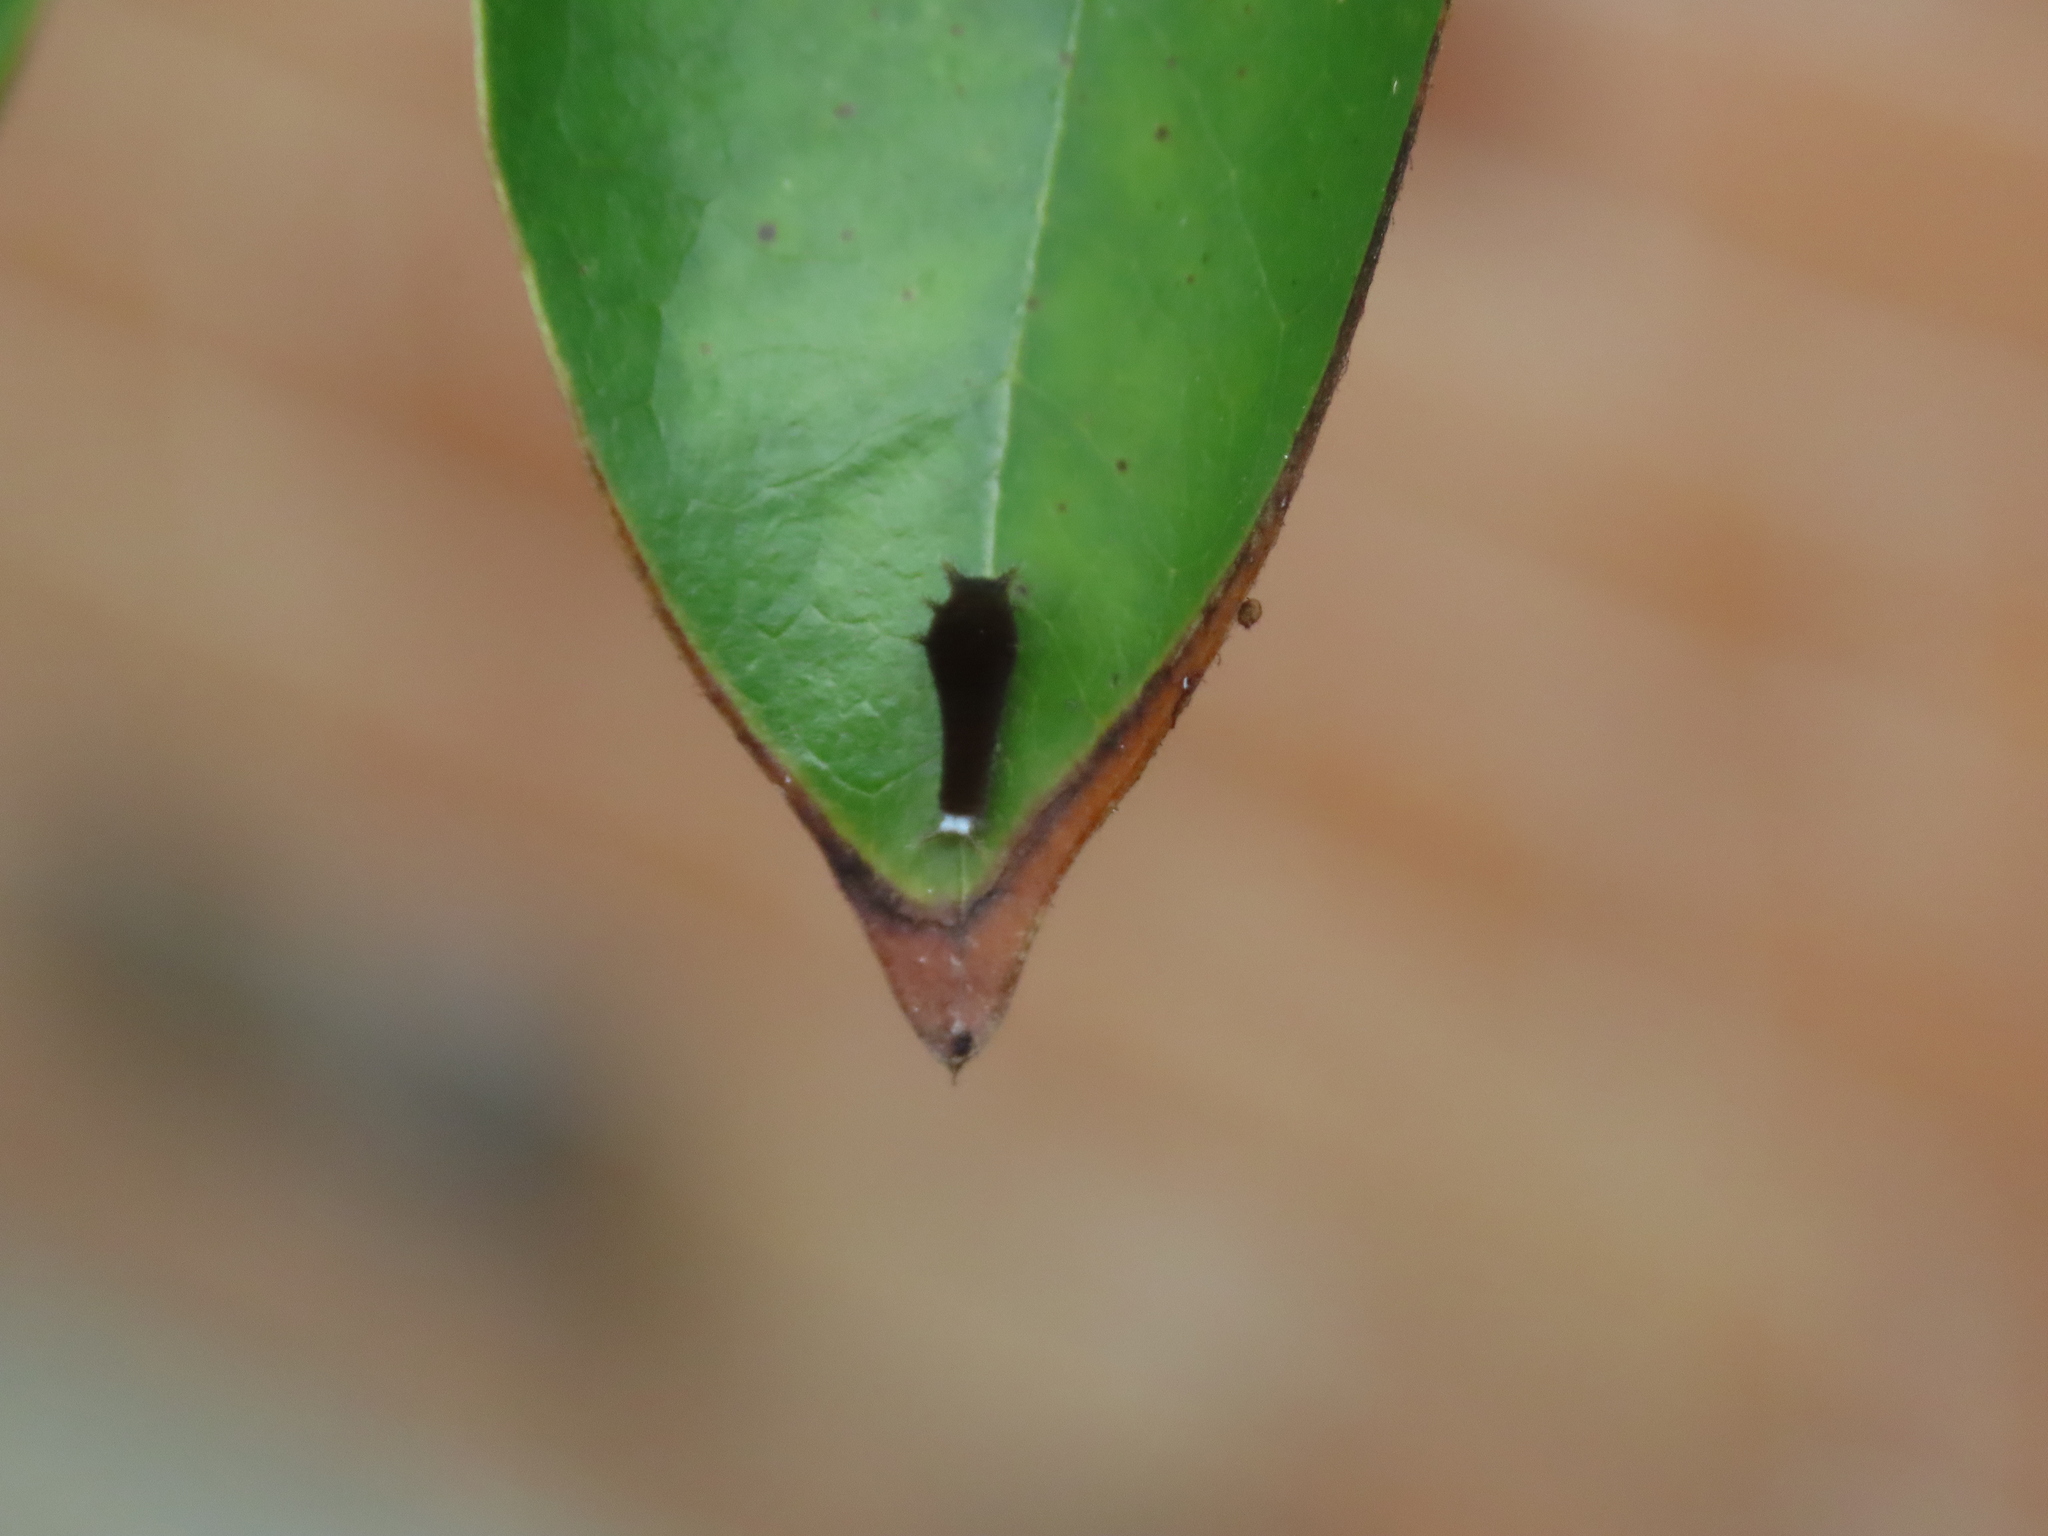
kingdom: Animalia
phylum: Arthropoda
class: Insecta
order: Lepidoptera
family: Papilionidae
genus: Graphium
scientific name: Graphium doson
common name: Common jay
